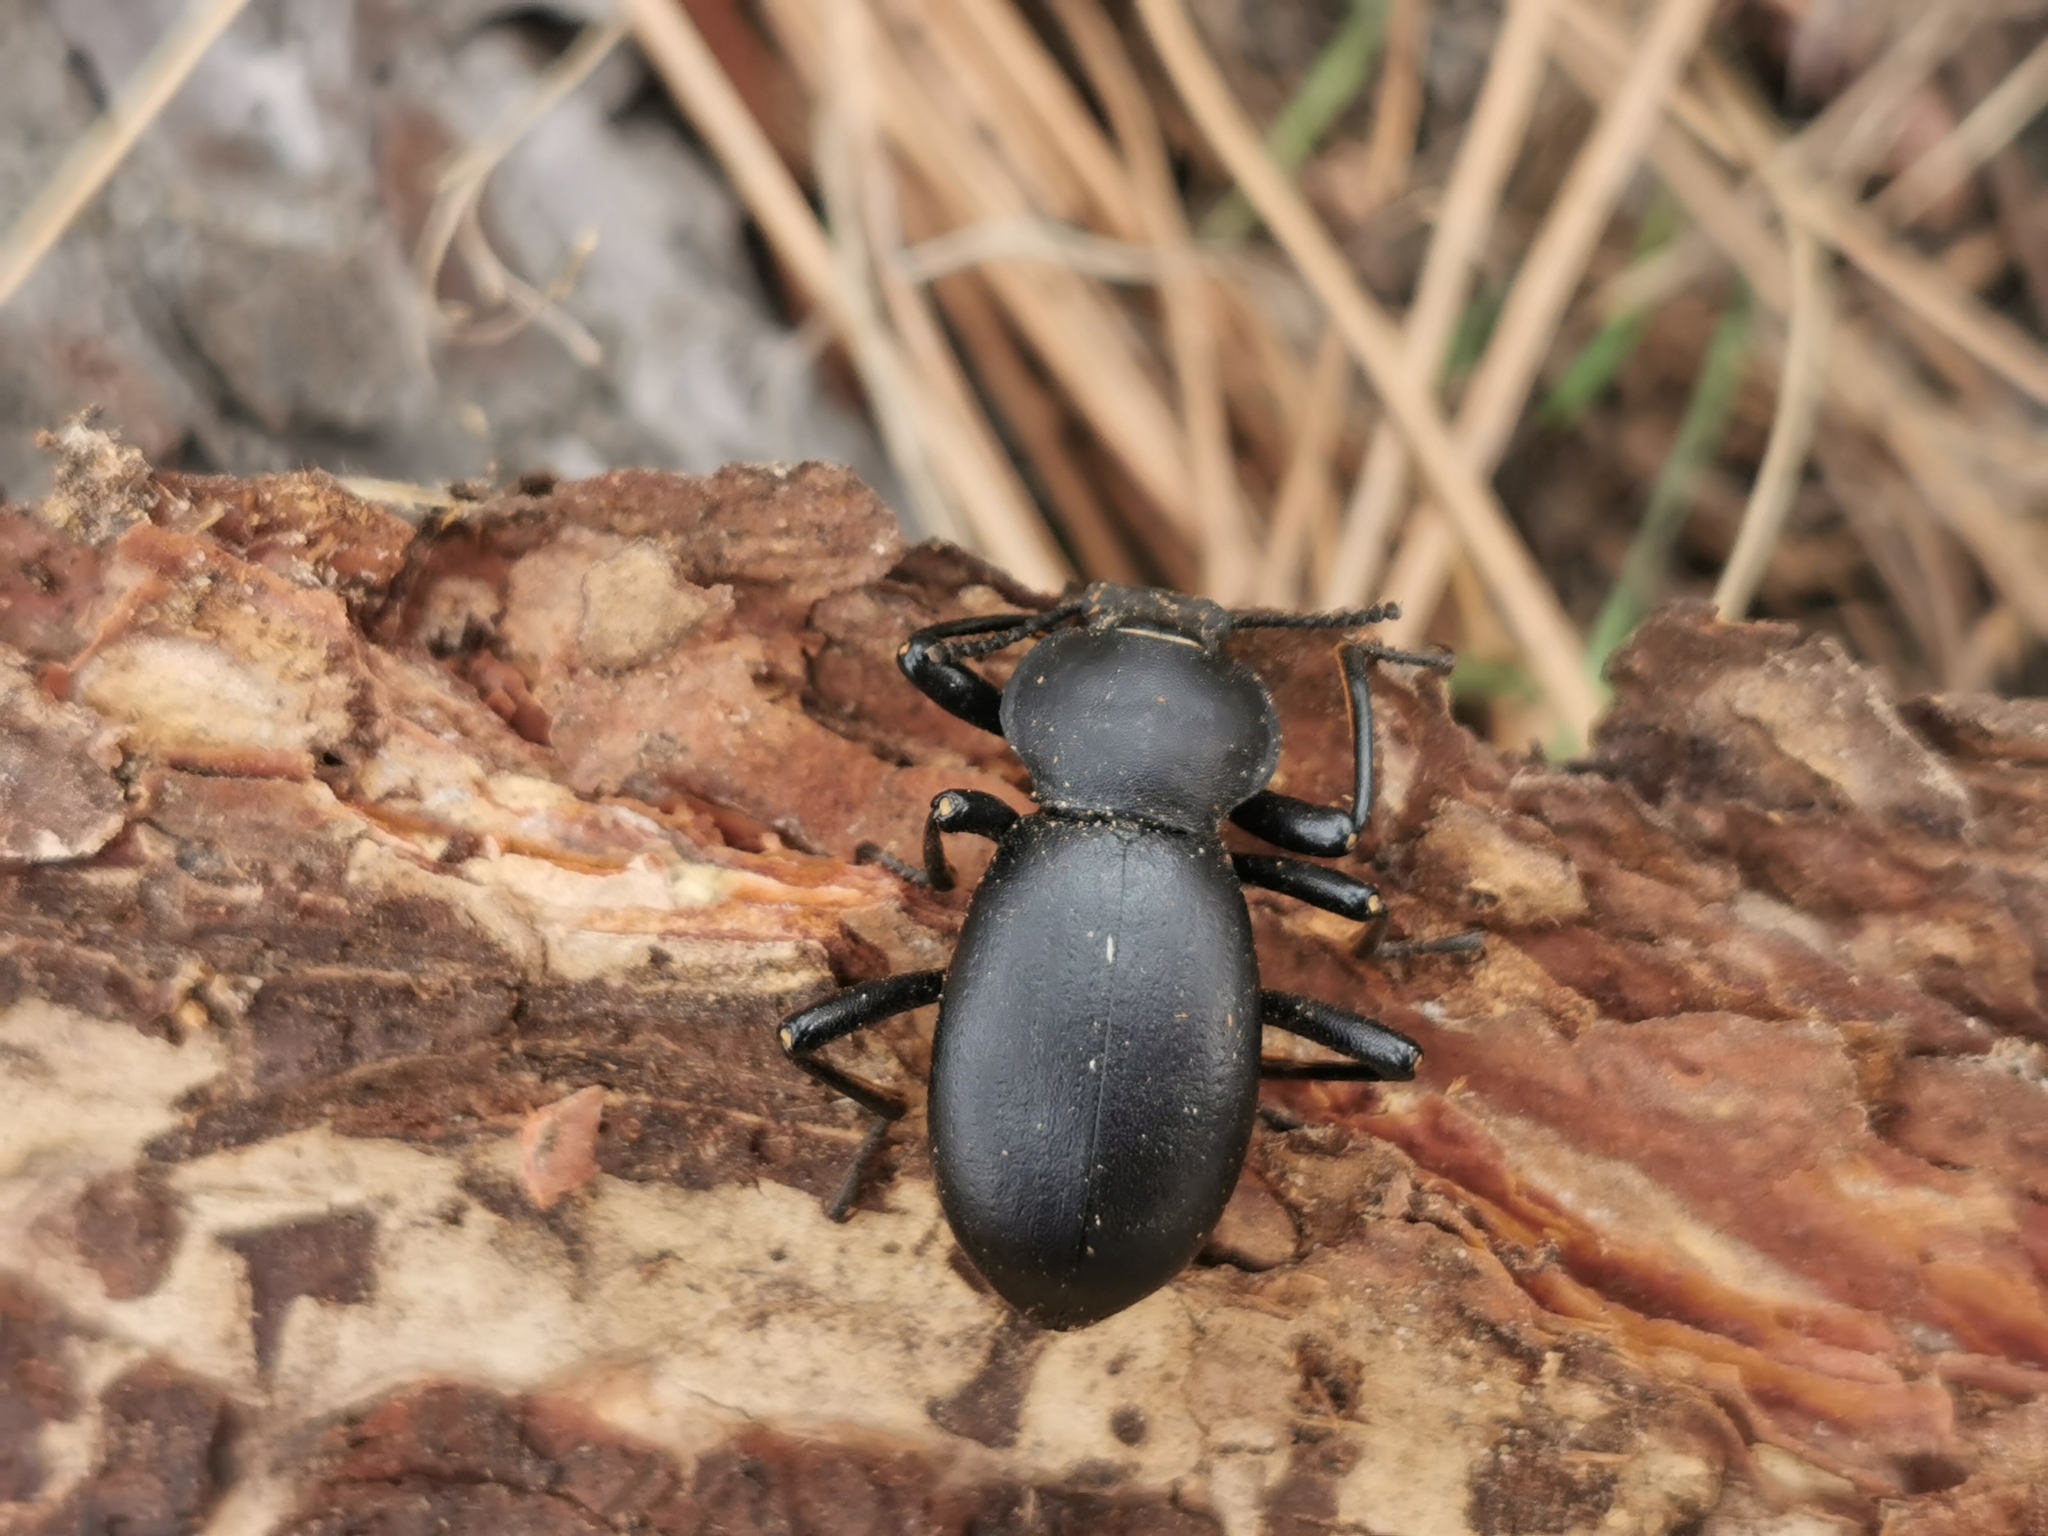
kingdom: Animalia
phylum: Arthropoda
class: Insecta
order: Coleoptera
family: Tenebrionidae
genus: Coelocnemis
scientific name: Coelocnemis dilaticollis
